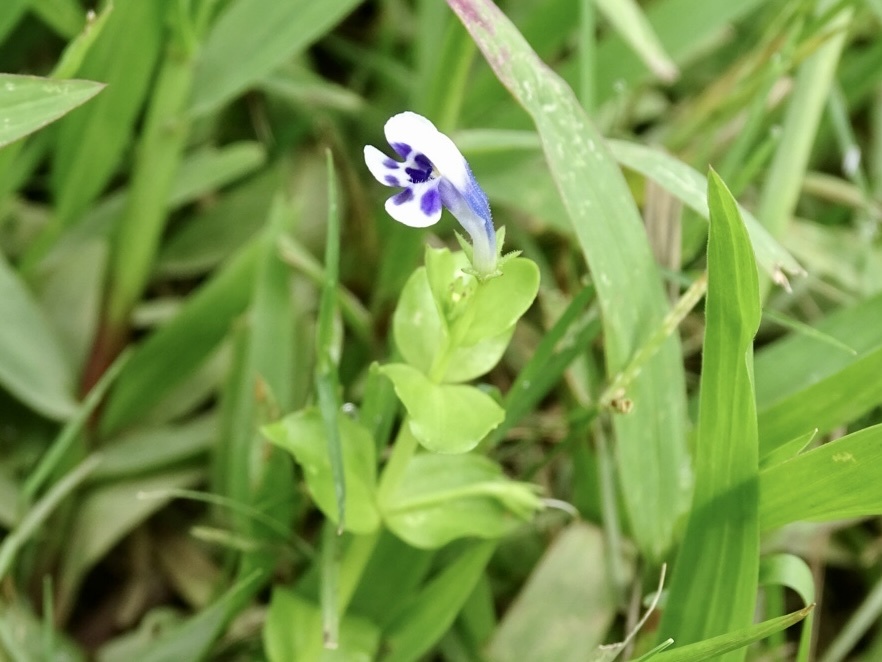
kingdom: Plantae
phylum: Tracheophyta
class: Magnoliopsida
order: Lamiales
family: Linderniaceae
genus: Lindernia
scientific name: Lindernia rotundifolia
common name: Baby’s tears
